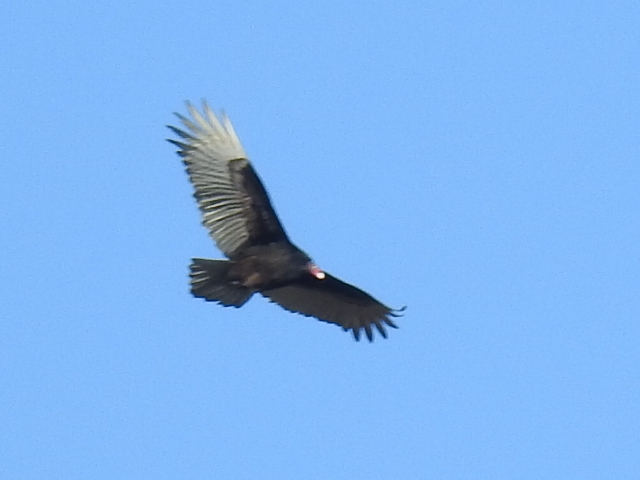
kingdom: Animalia
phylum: Chordata
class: Aves
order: Accipitriformes
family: Cathartidae
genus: Cathartes
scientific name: Cathartes aura
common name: Turkey vulture
